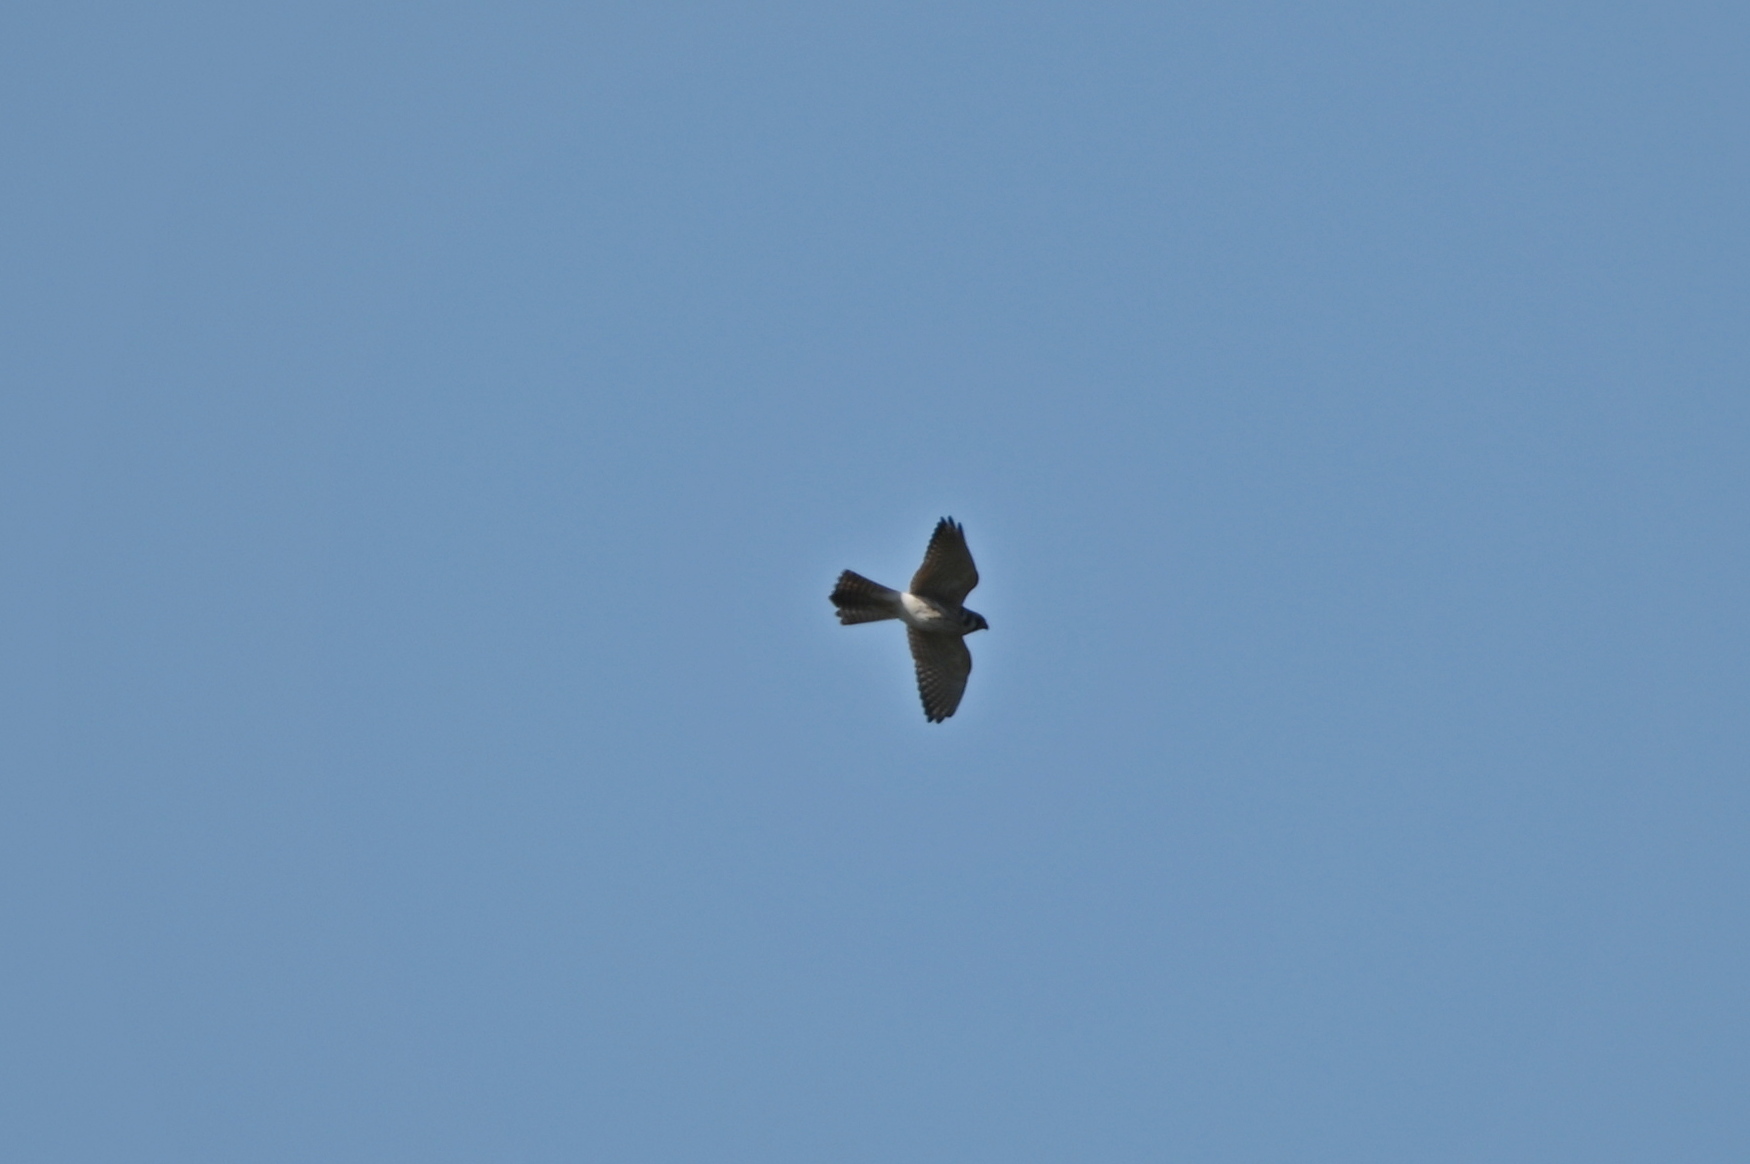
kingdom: Animalia
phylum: Chordata
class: Aves
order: Falconiformes
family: Falconidae
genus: Falco
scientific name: Falco sparverius
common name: American kestrel
